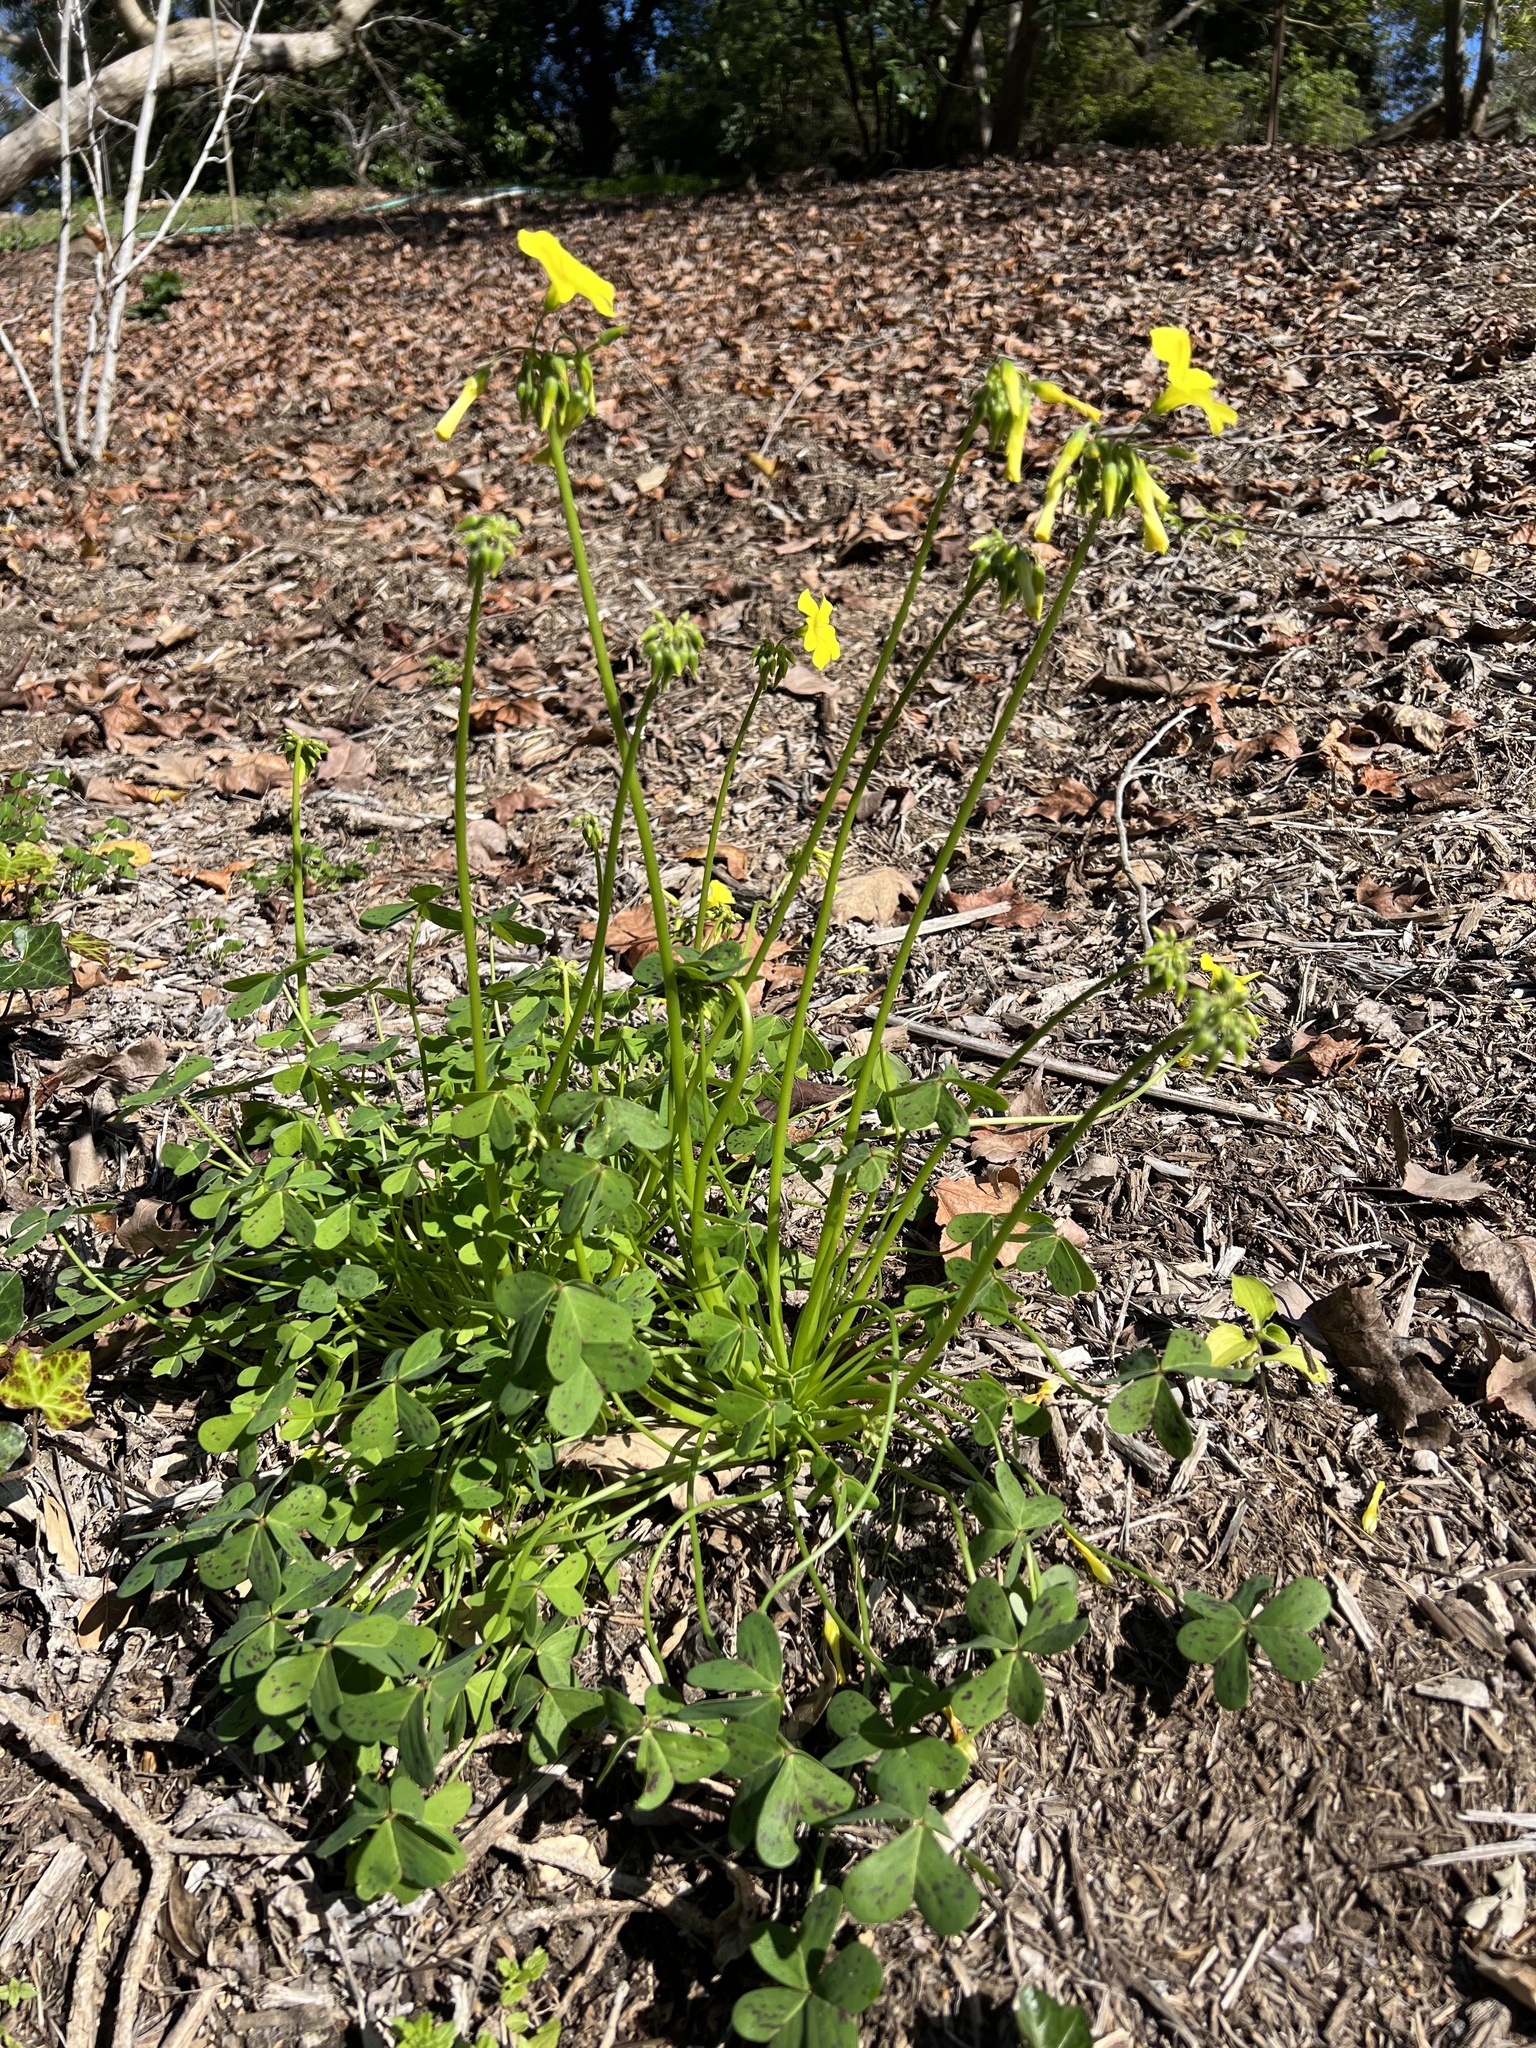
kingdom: Plantae
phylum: Tracheophyta
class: Magnoliopsida
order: Oxalidales
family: Oxalidaceae
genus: Oxalis
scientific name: Oxalis pes-caprae
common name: Bermuda-buttercup
